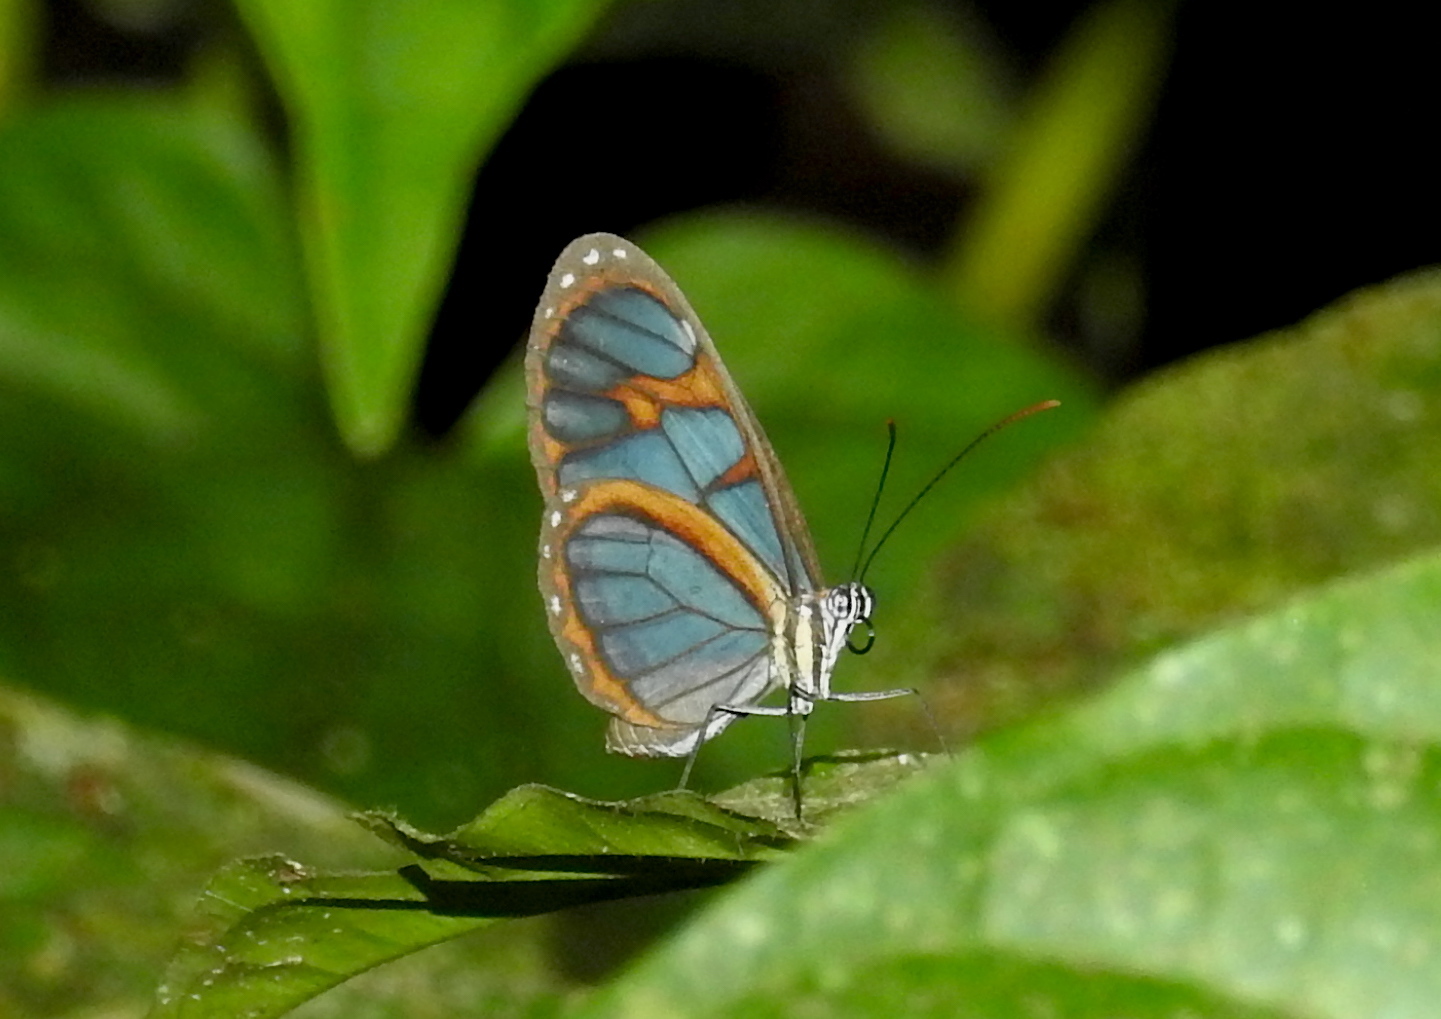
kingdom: Animalia
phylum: Arthropoda
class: Insecta
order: Lepidoptera
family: Nymphalidae
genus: Ithomia
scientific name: Ithomia diasia
